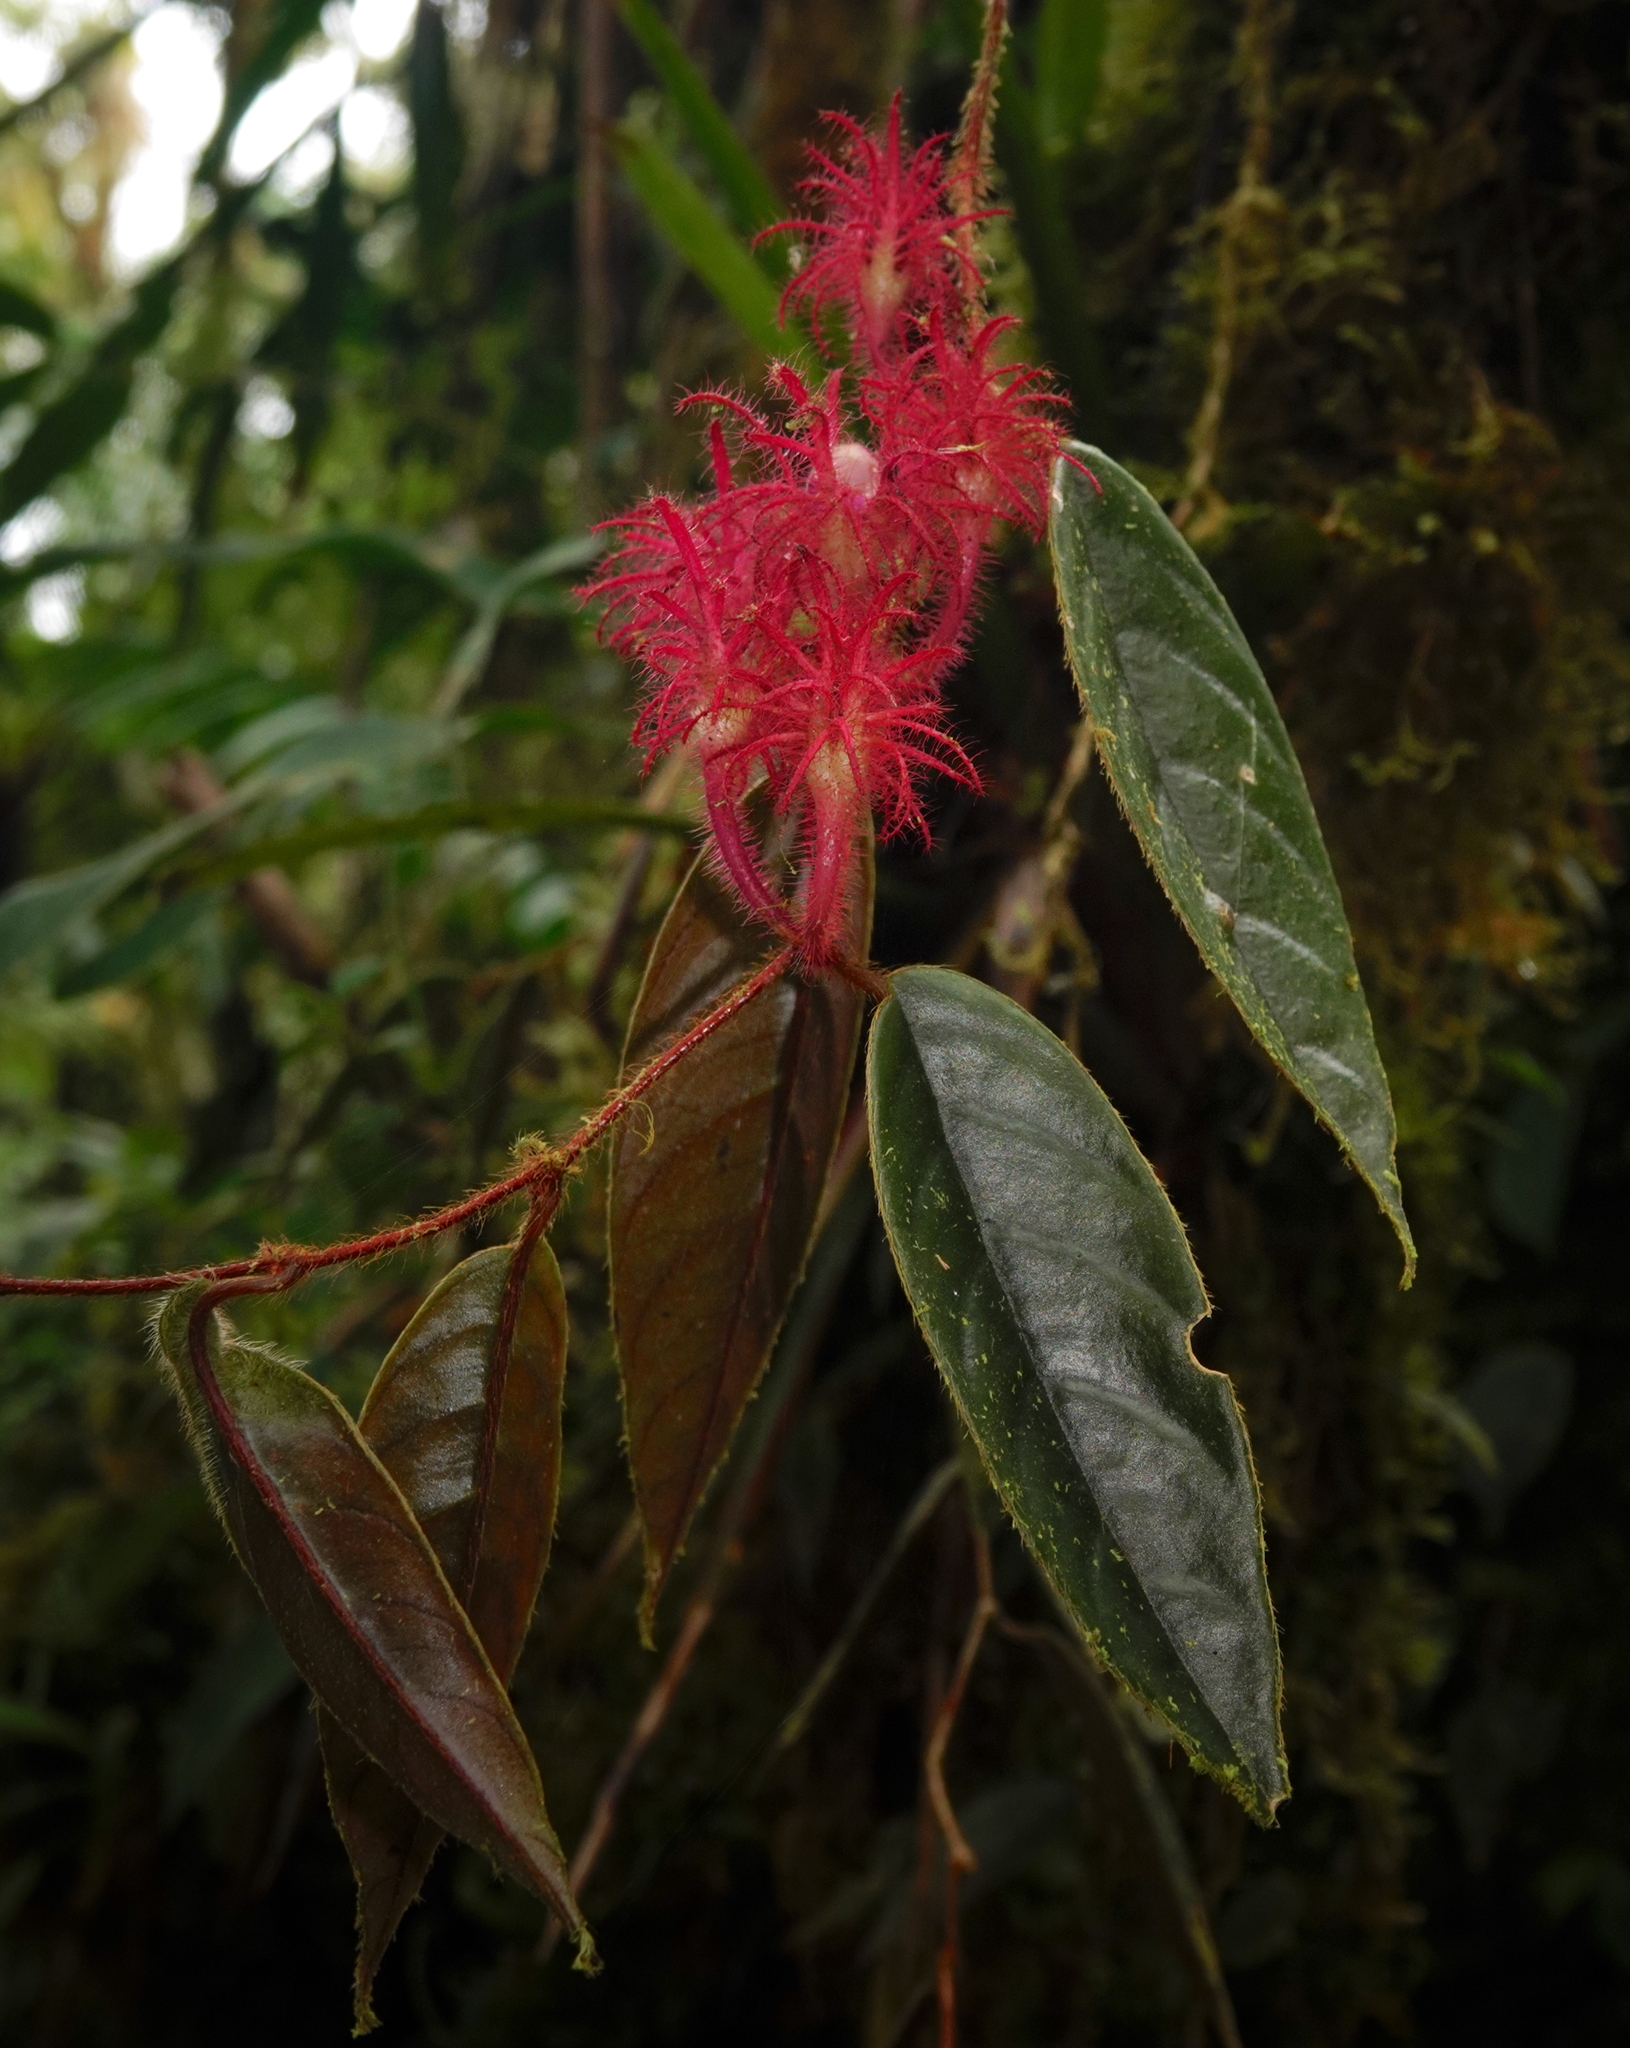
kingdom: Plantae
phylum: Tracheophyta
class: Magnoliopsida
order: Lamiales
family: Gesneriaceae
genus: Columnea
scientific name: Columnea minor
